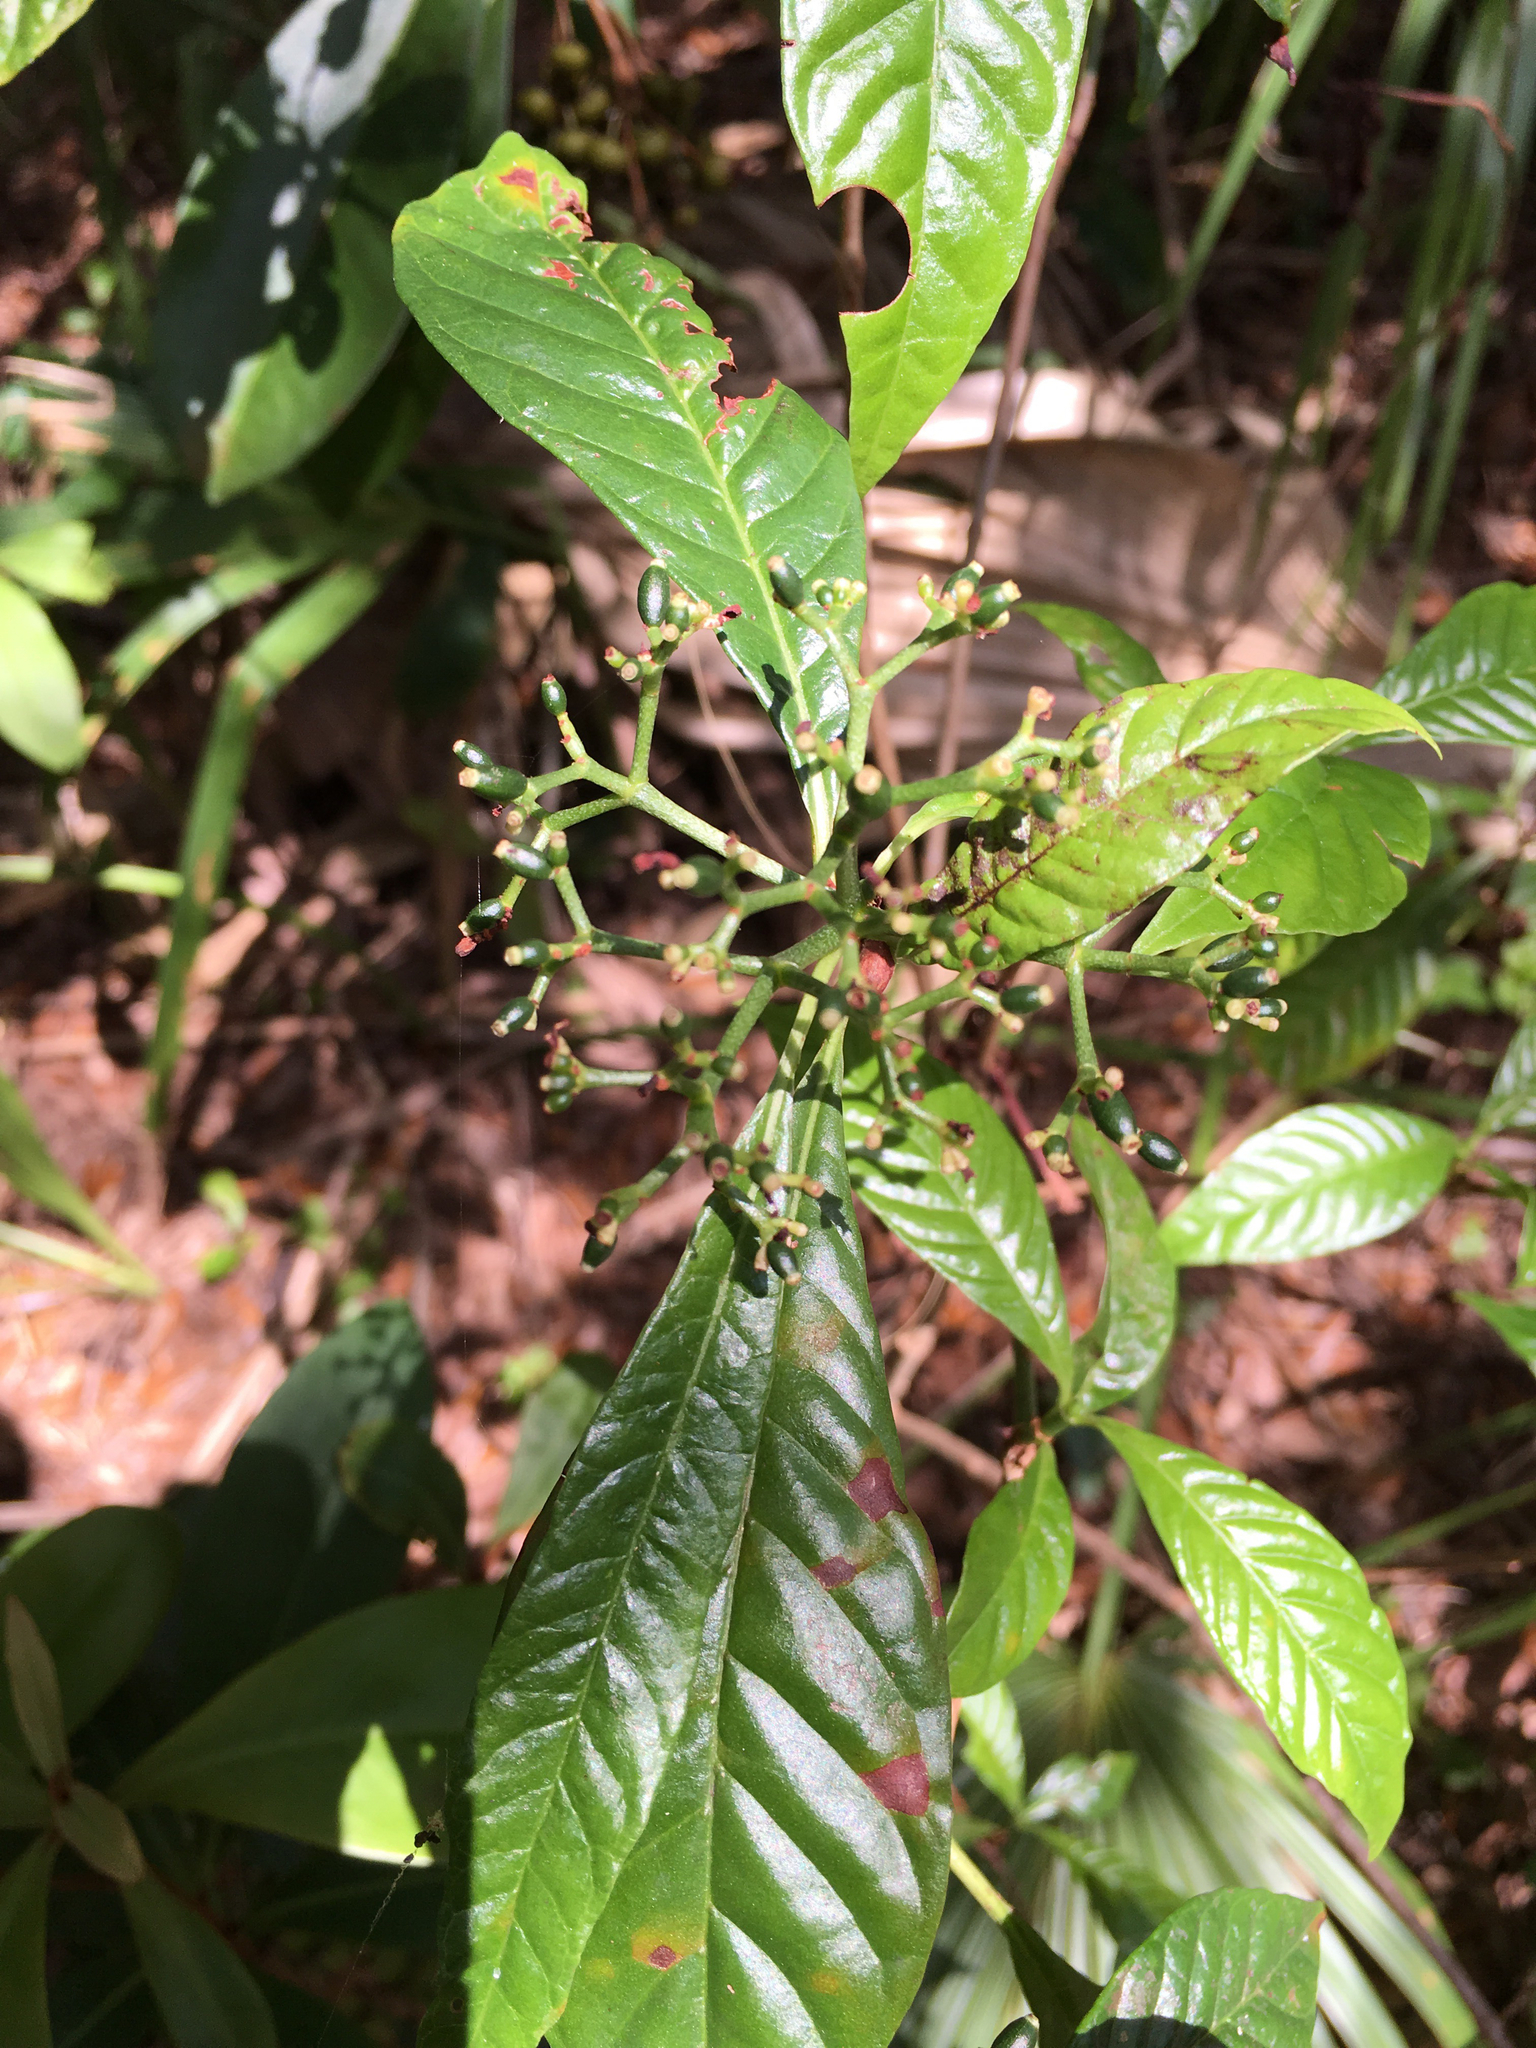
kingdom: Plantae
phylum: Tracheophyta
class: Magnoliopsida
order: Gentianales
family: Rubiaceae
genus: Psychotria
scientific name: Psychotria nervosa
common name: Bastard cankerberry
